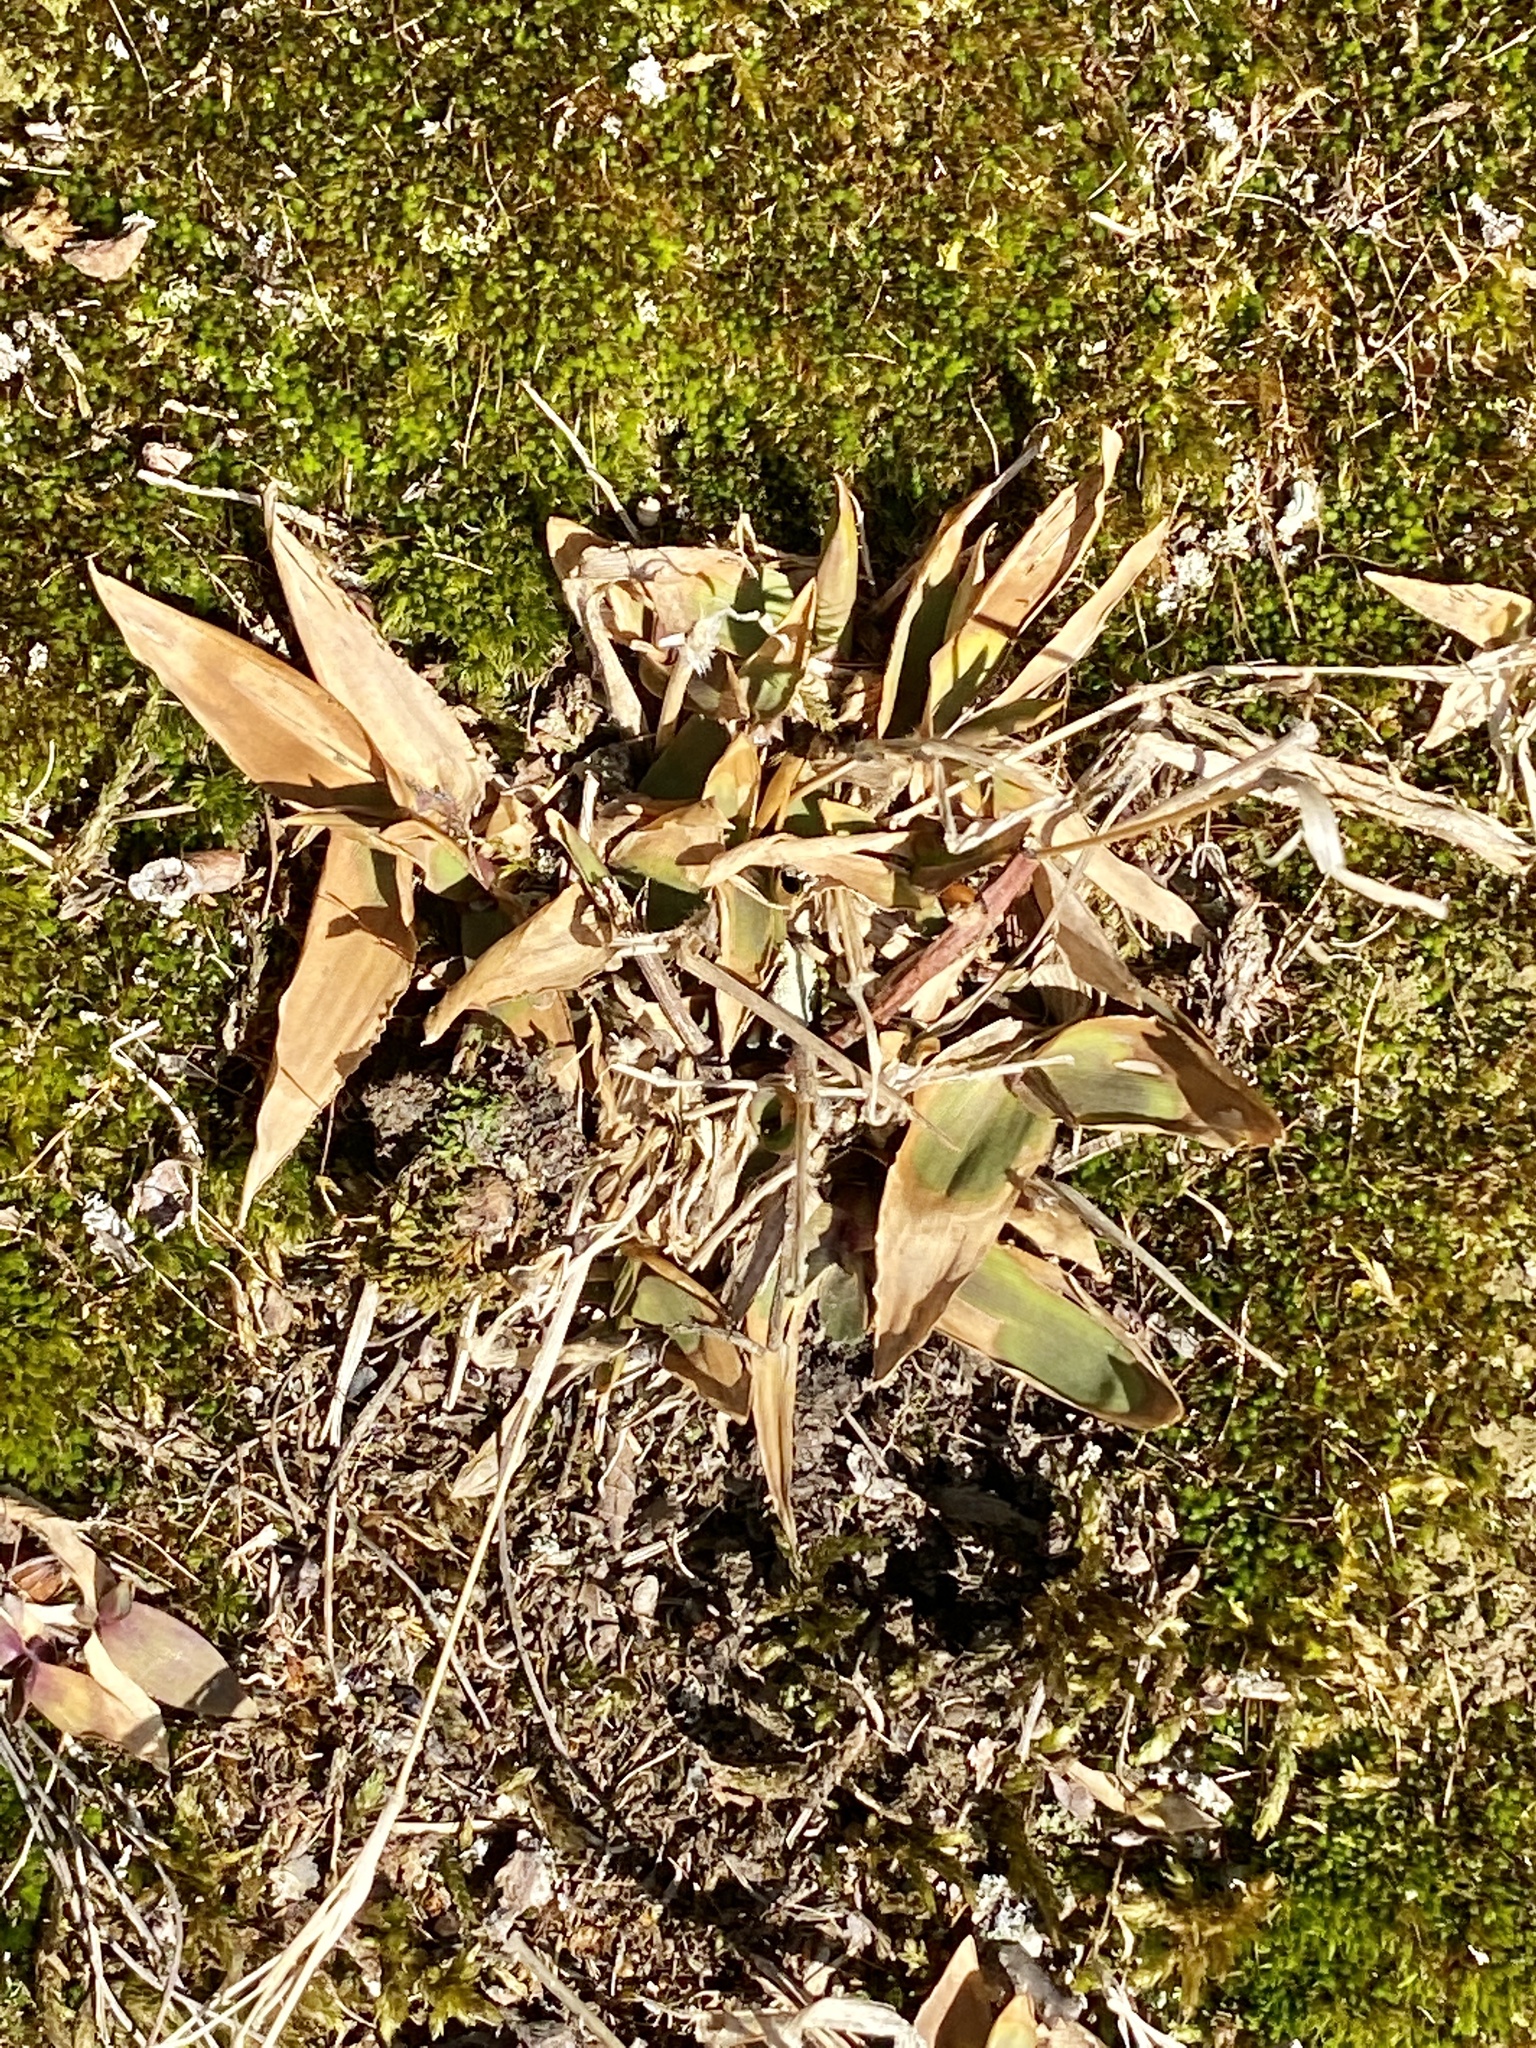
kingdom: Plantae
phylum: Tracheophyta
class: Liliopsida
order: Poales
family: Poaceae
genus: Dichanthelium
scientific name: Dichanthelium clandestinum
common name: Deer-tongue grass
